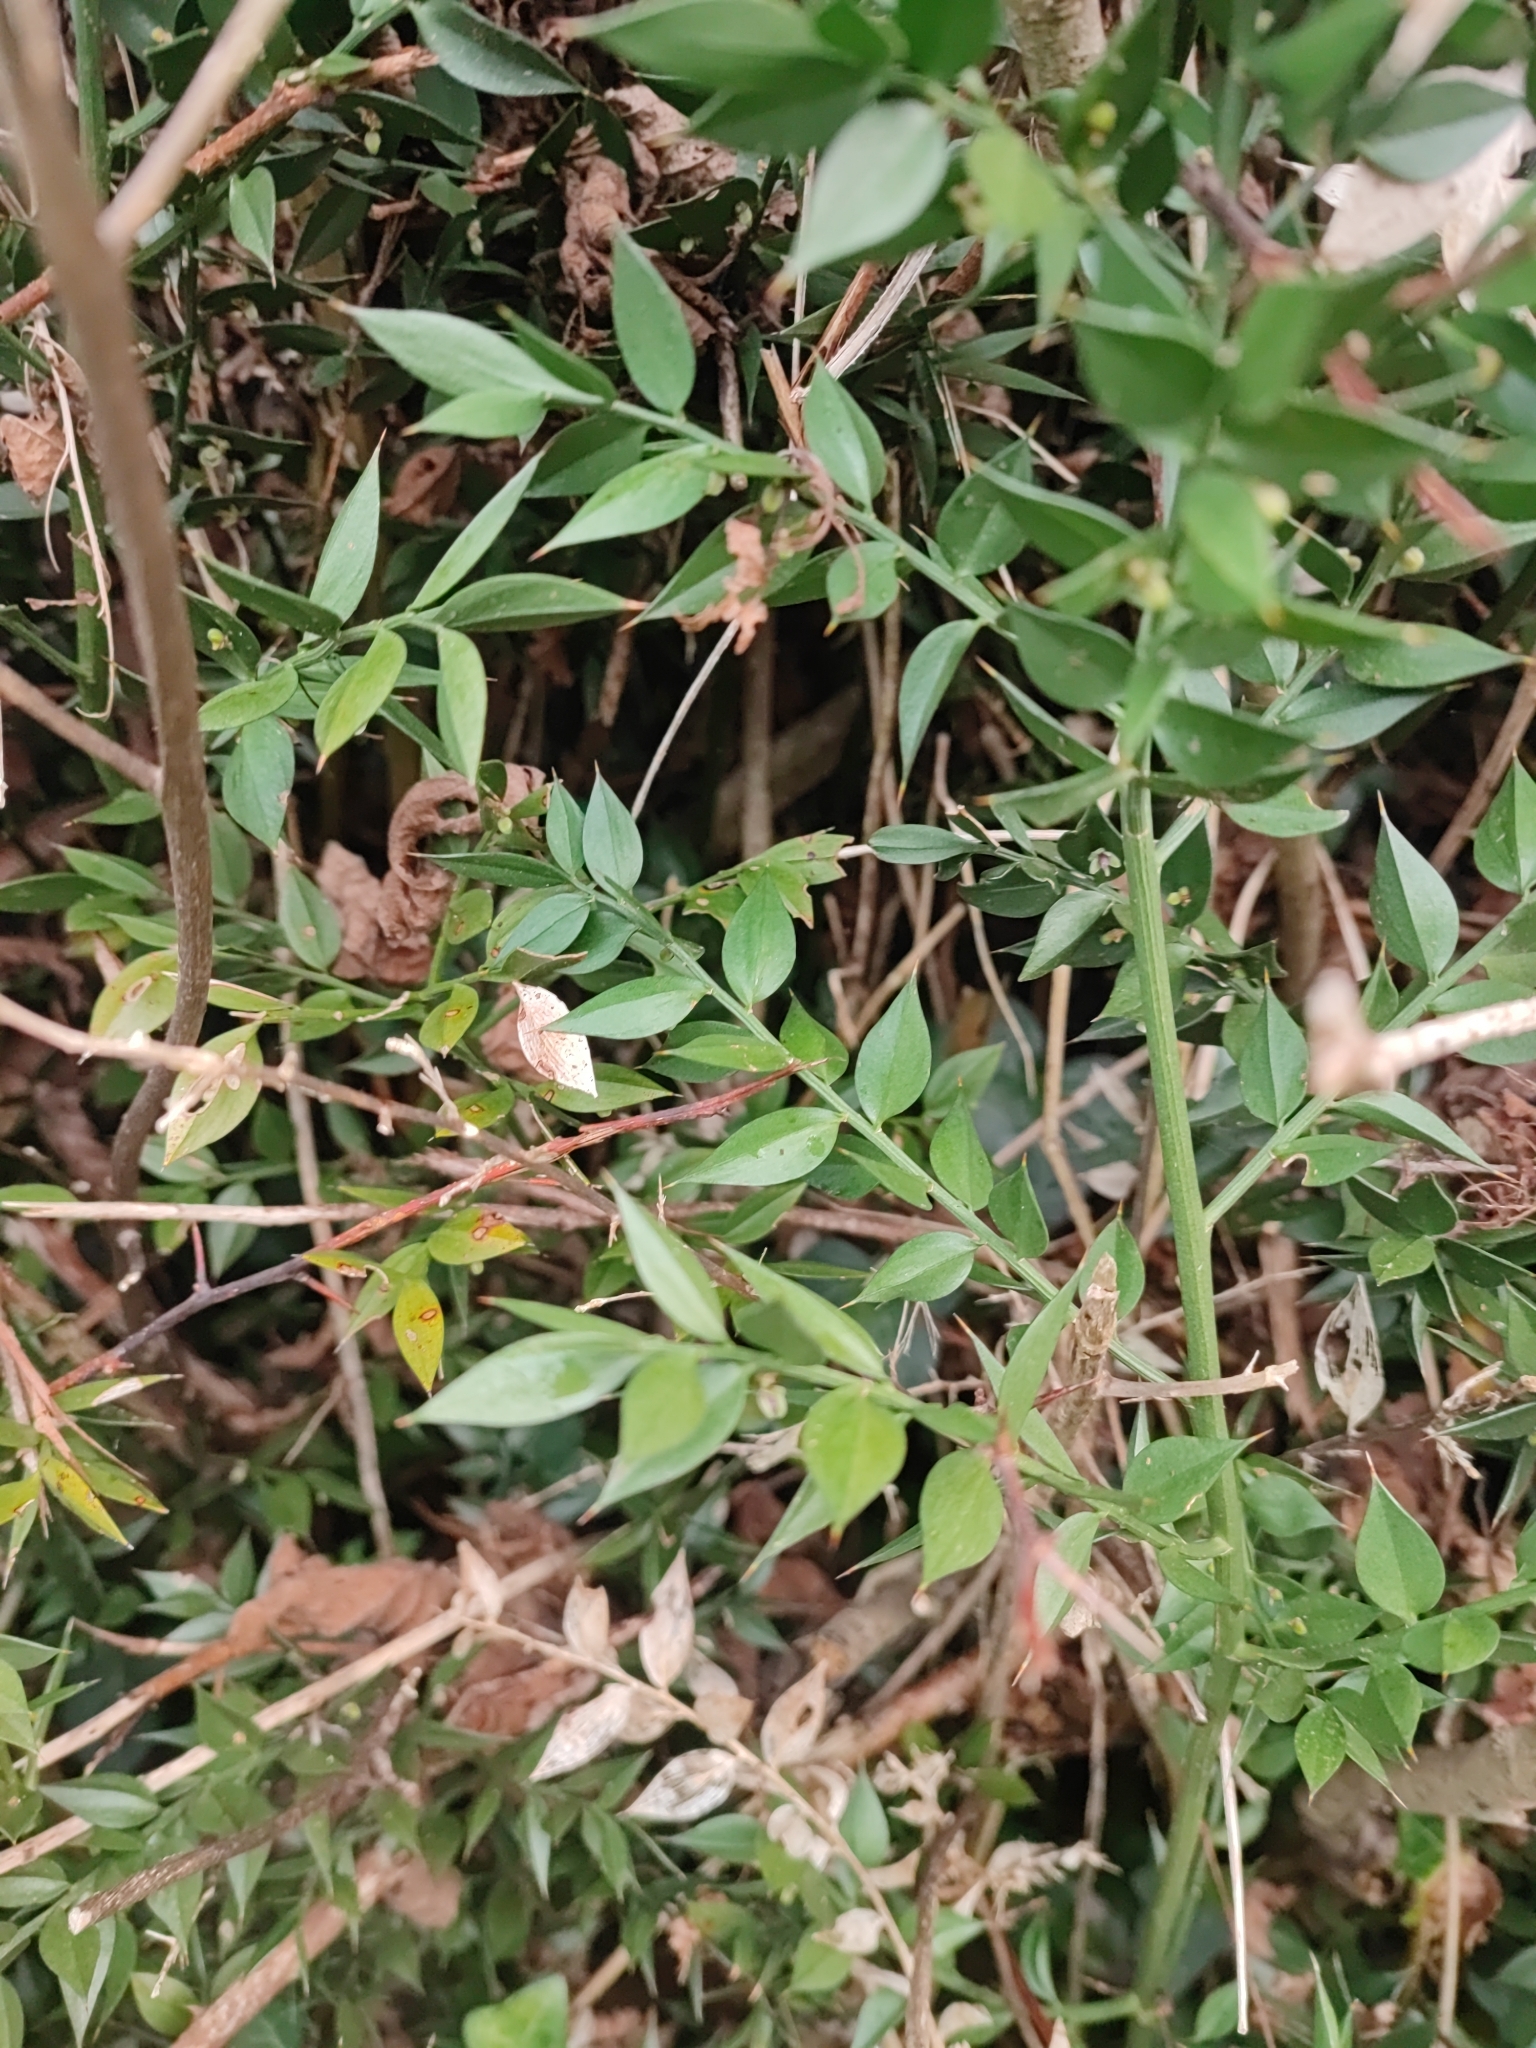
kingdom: Plantae
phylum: Tracheophyta
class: Liliopsida
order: Asparagales
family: Asparagaceae
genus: Ruscus
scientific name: Ruscus aculeatus
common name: Butcher's-broom
